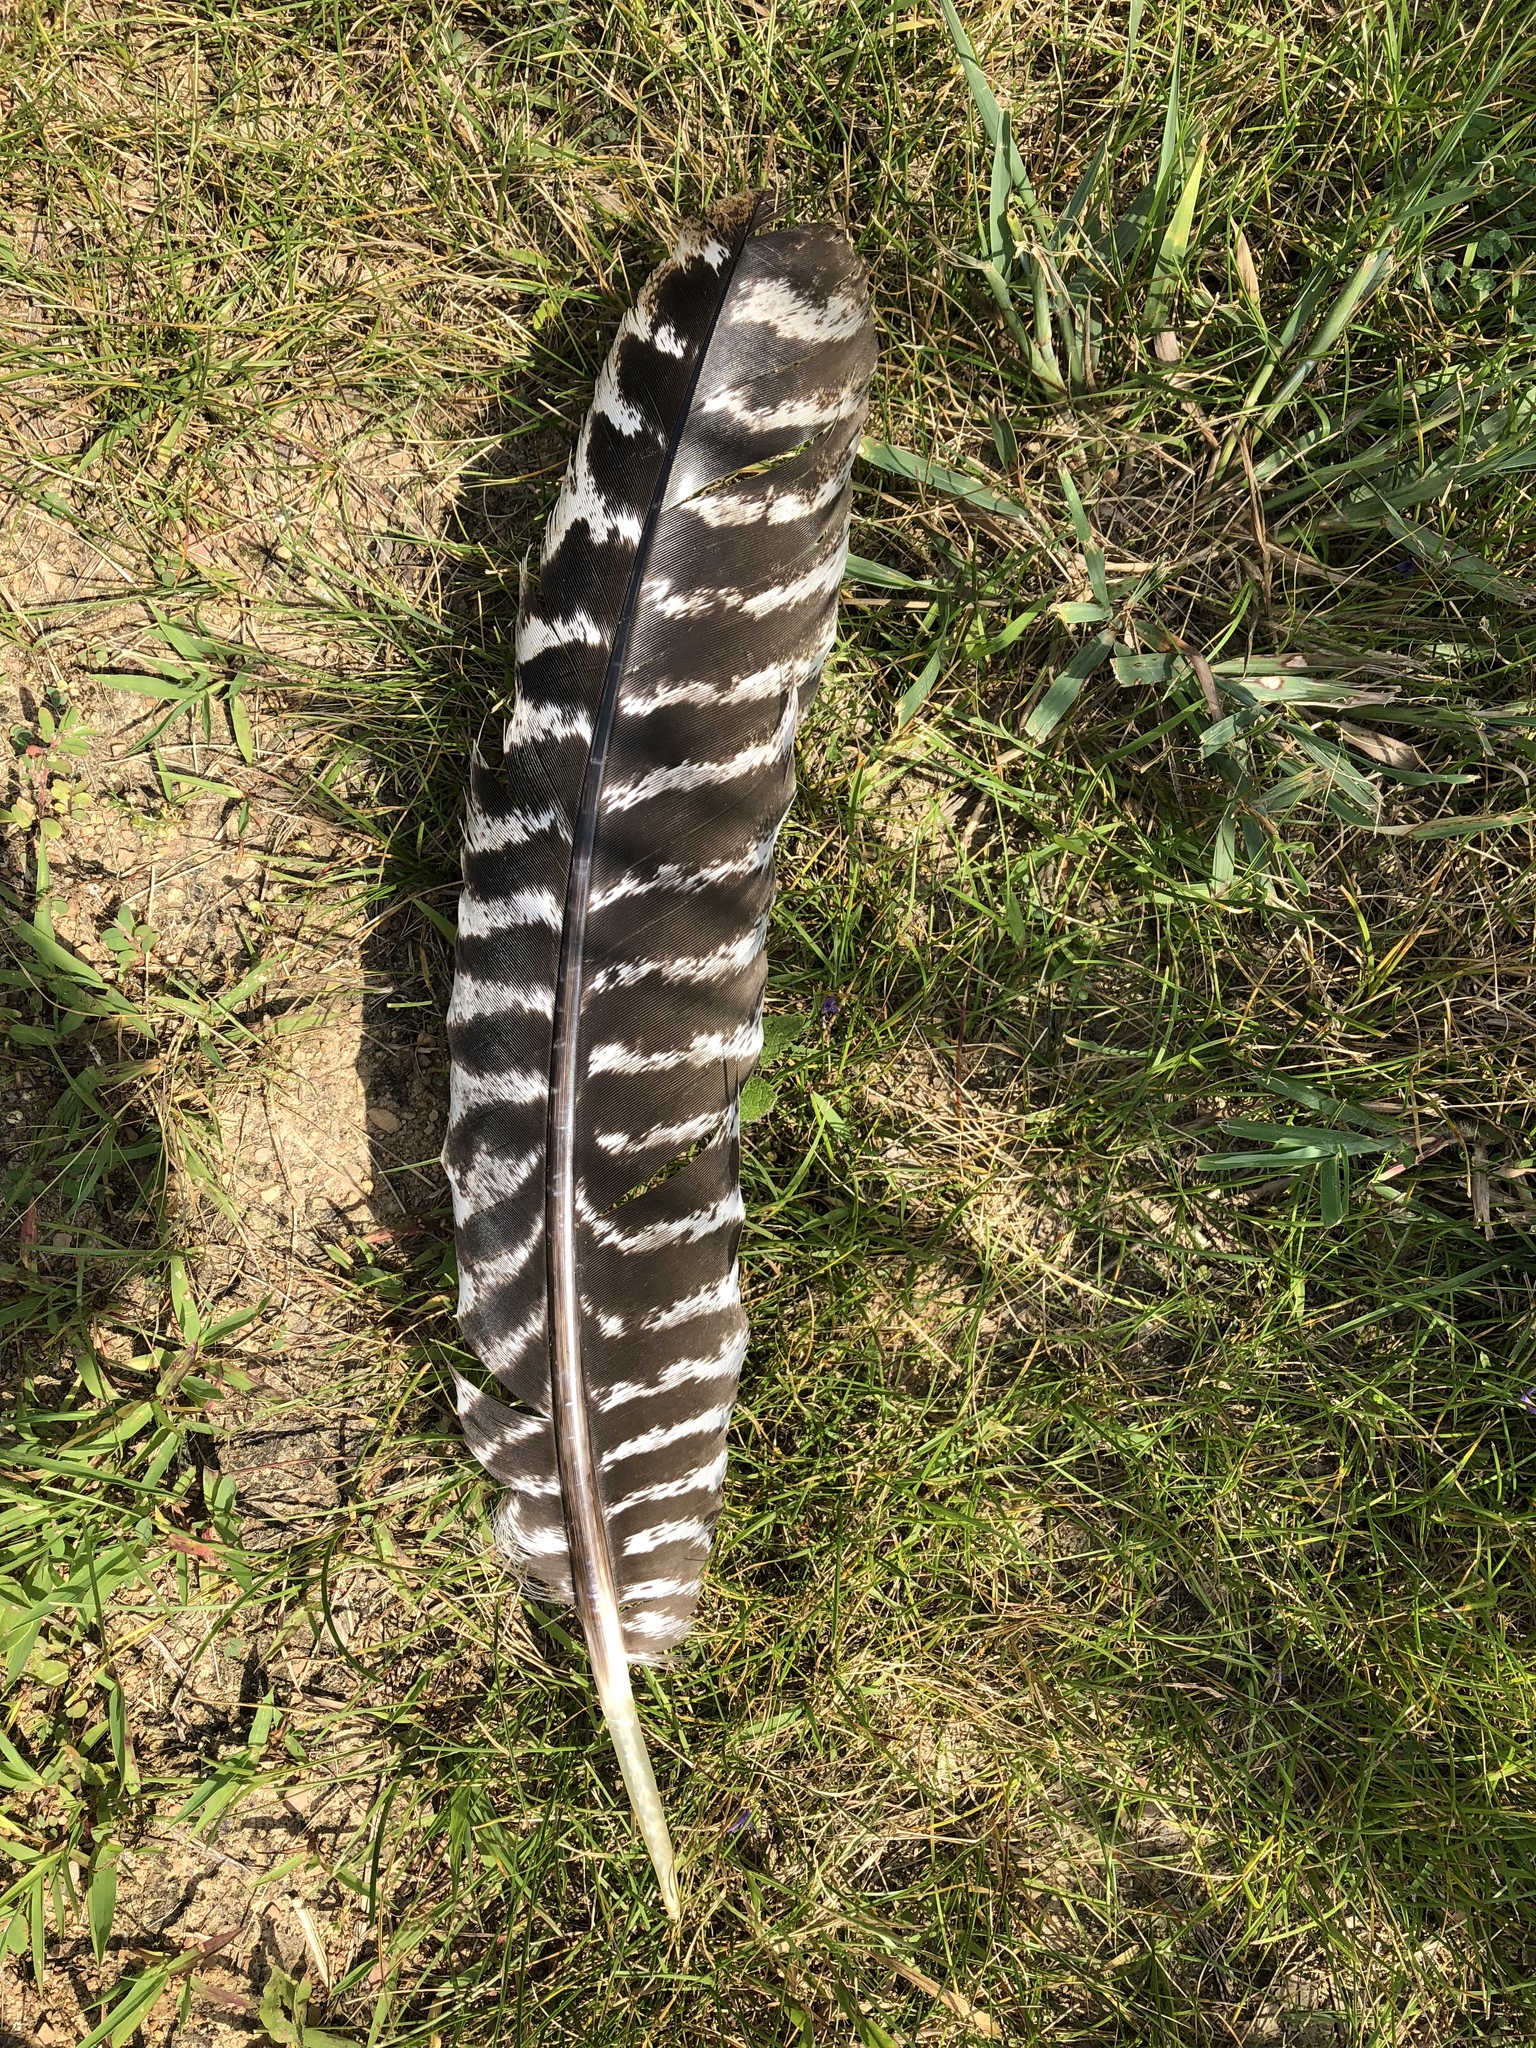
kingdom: Animalia
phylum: Chordata
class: Aves
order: Galliformes
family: Phasianidae
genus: Meleagris
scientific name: Meleagris gallopavo
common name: Wild turkey
